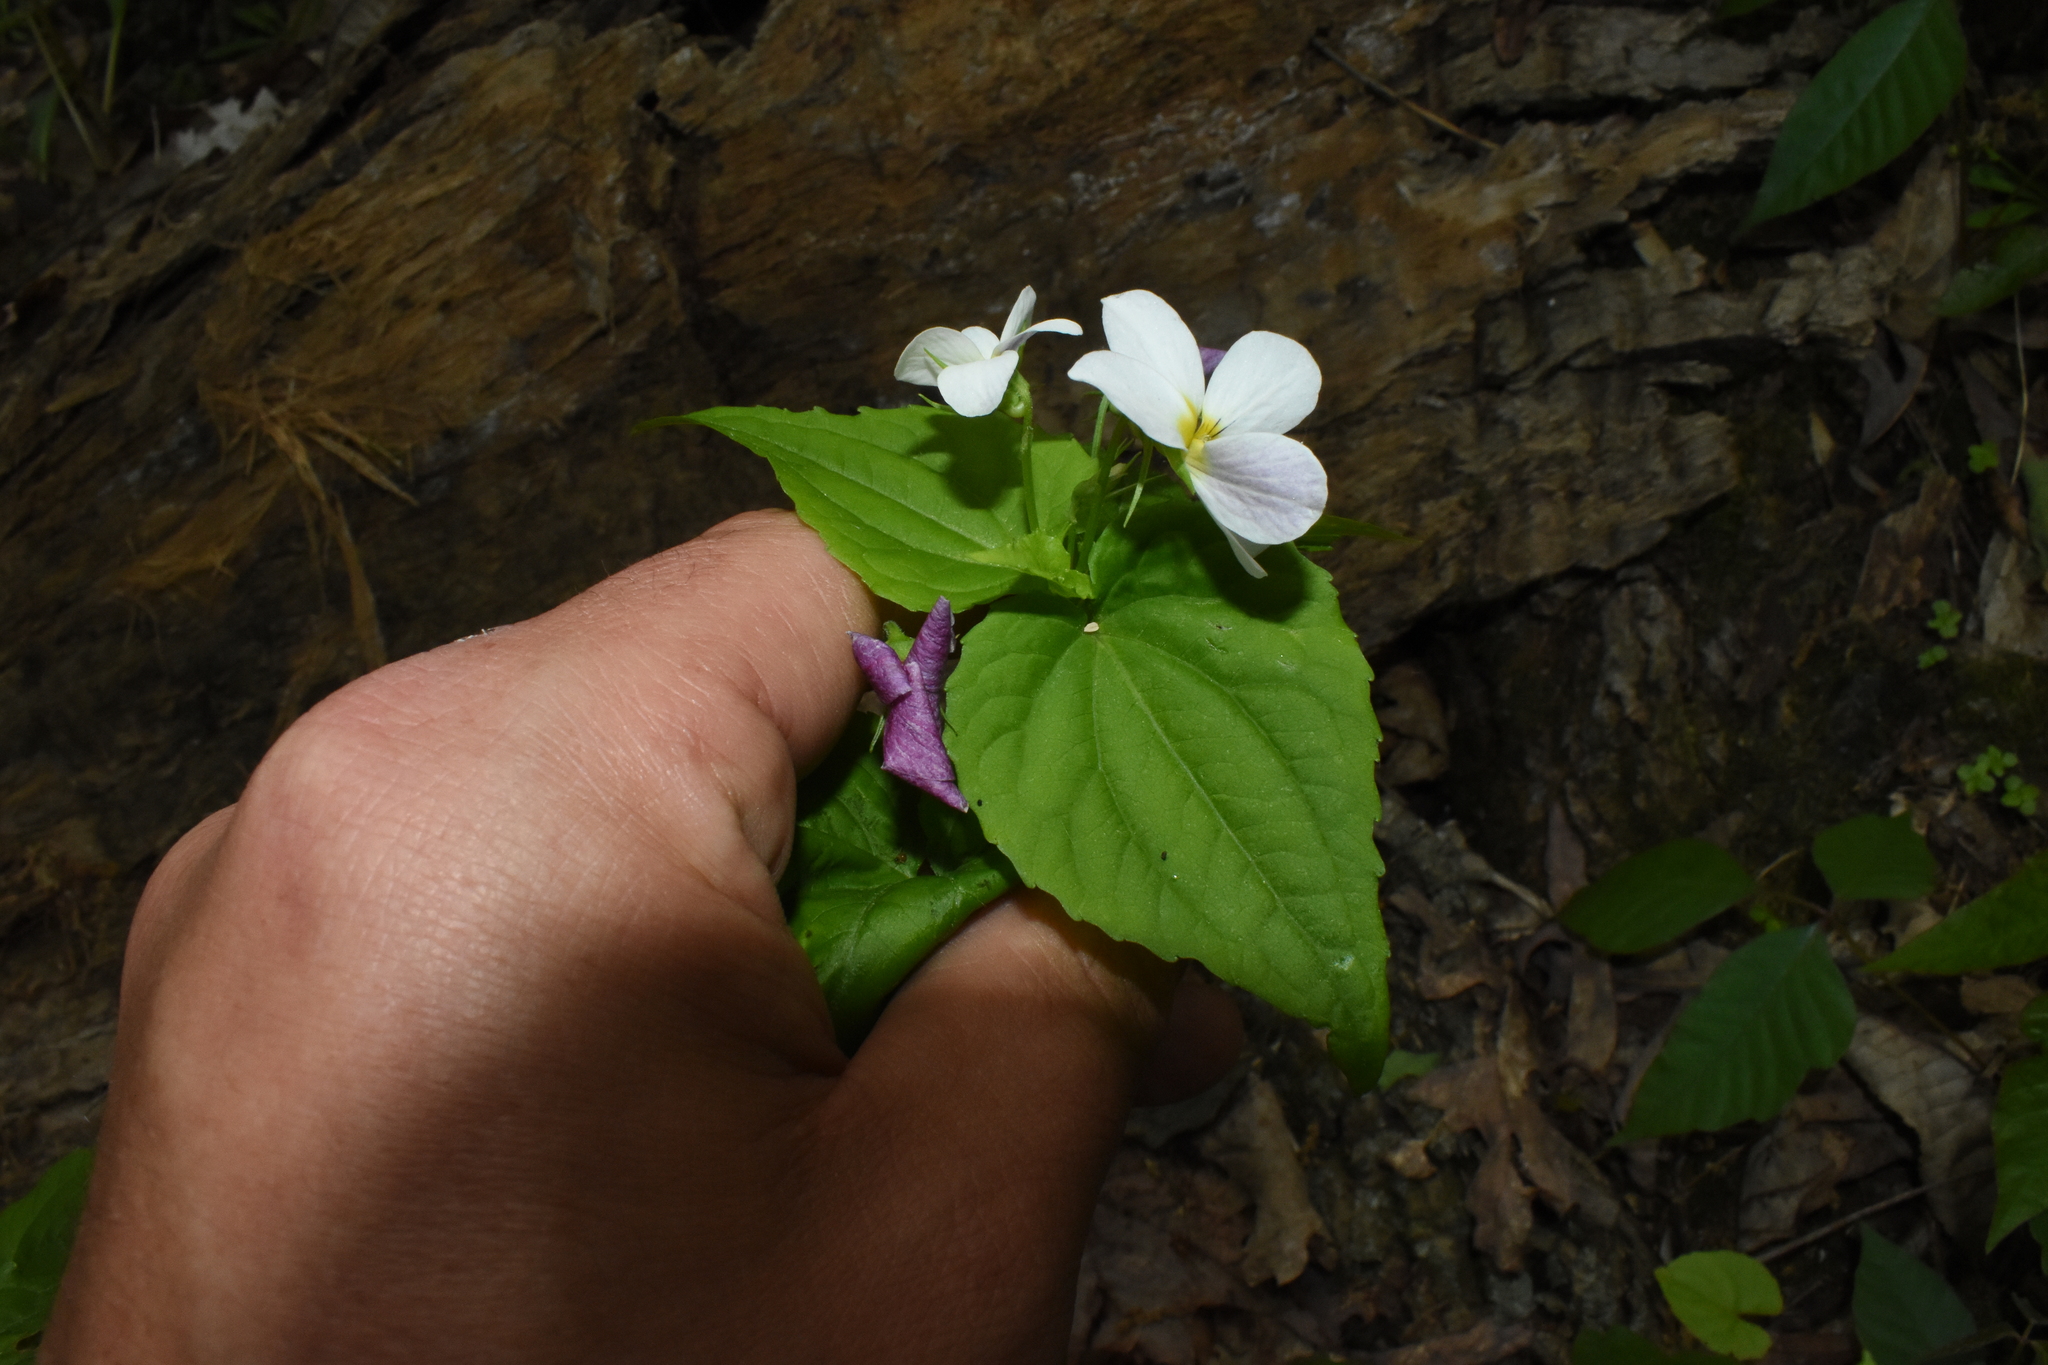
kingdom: Plantae
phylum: Tracheophyta
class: Magnoliopsida
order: Malpighiales
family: Violaceae
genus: Viola
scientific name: Viola canadensis
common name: Canada violet
